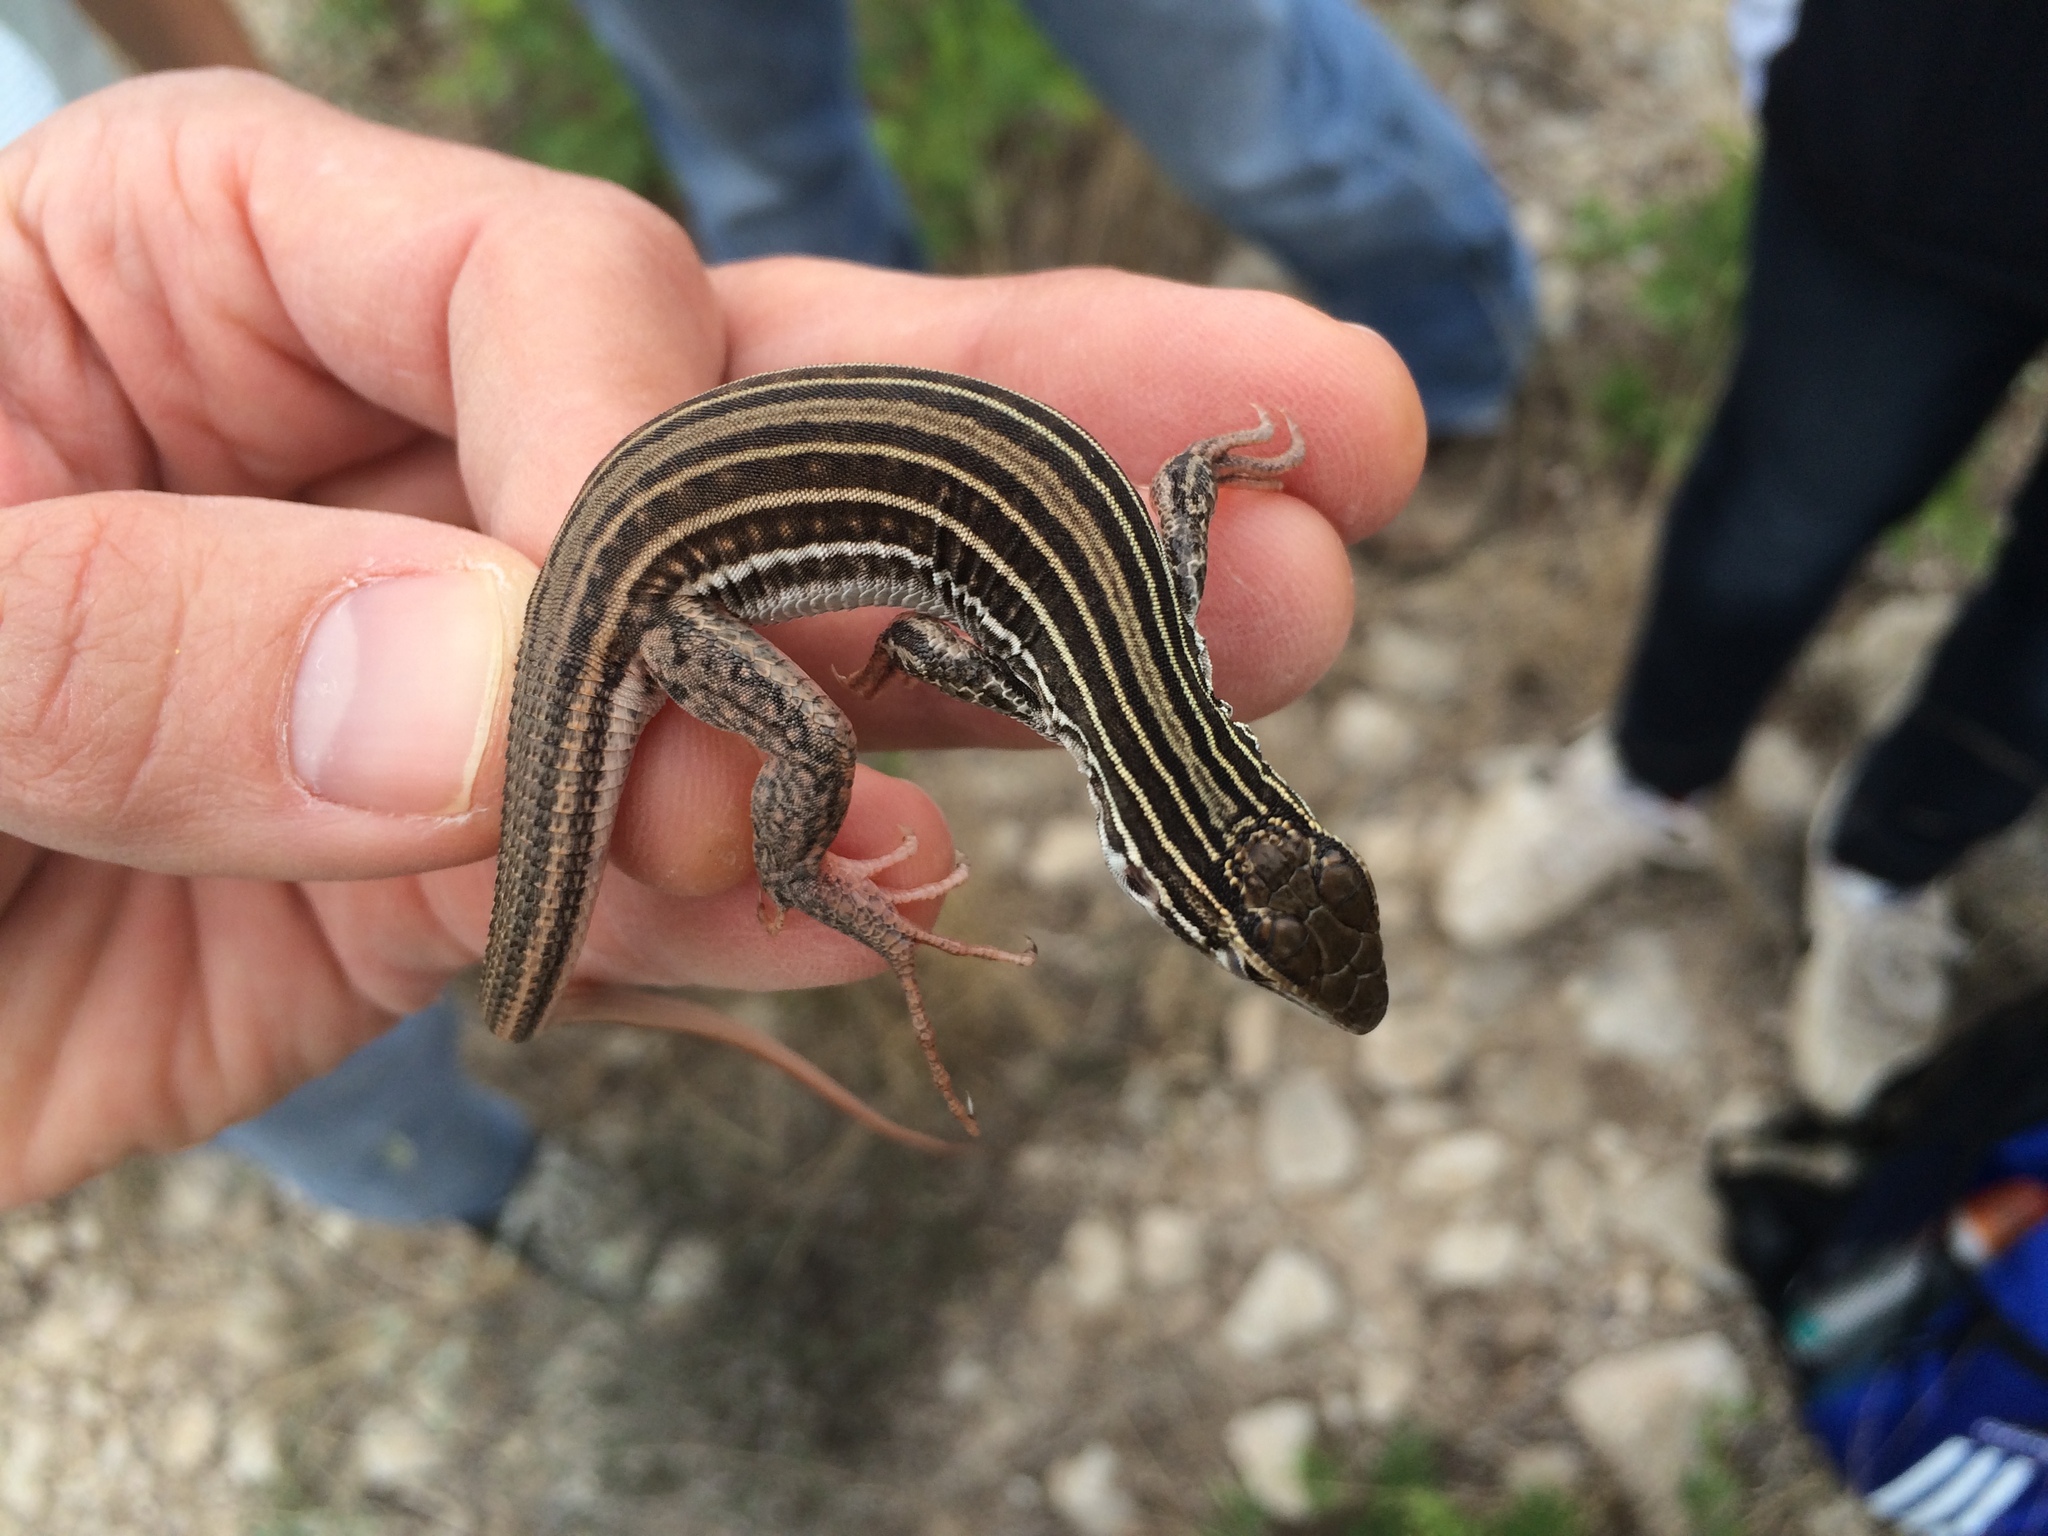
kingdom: Animalia
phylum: Chordata
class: Squamata
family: Teiidae
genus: Aspidoscelis
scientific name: Aspidoscelis gularis
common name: Eastern spotted whiptail
